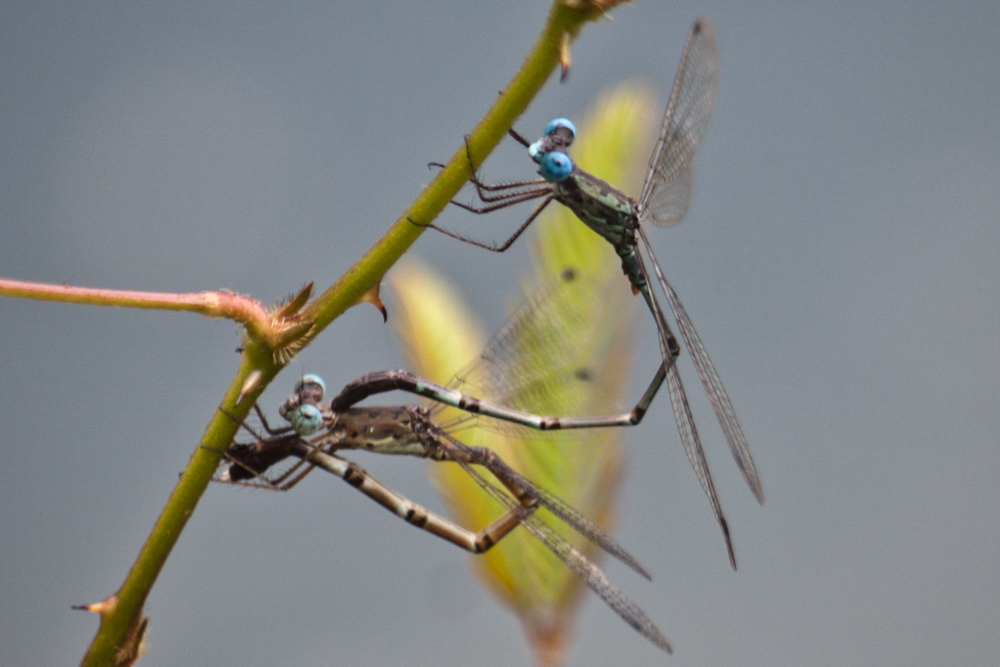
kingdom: Animalia
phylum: Arthropoda
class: Insecta
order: Odonata
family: Lestidae
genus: Lestes
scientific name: Lestes praemorsus
